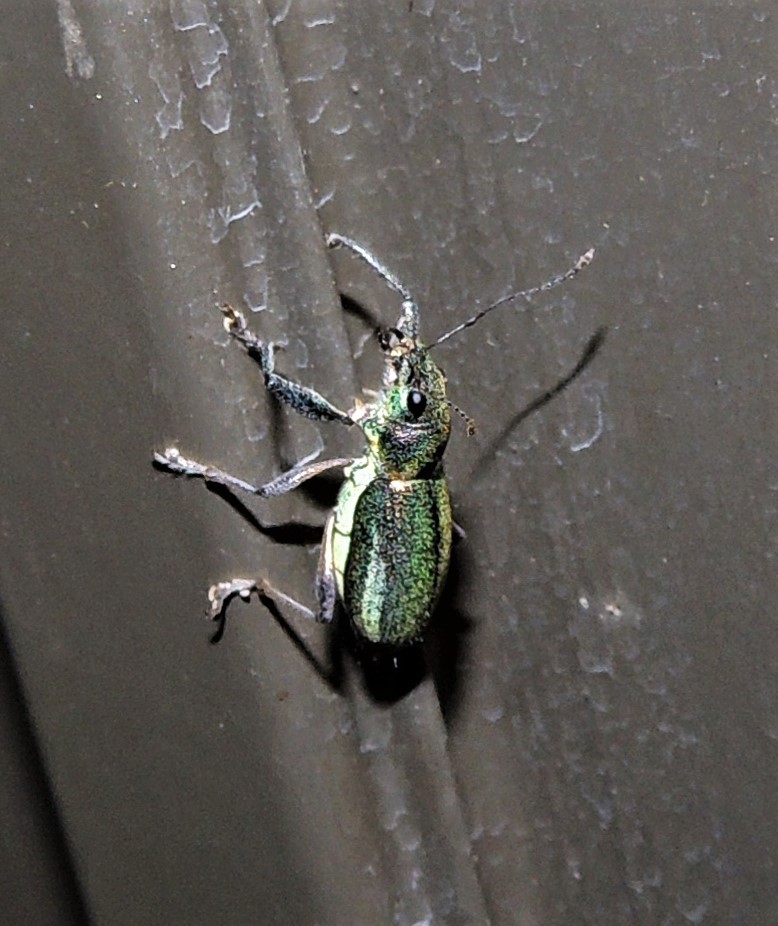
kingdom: Animalia
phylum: Arthropoda
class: Insecta
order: Coleoptera
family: Curculionidae
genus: Naupactus
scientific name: Naupactus auricinctus
